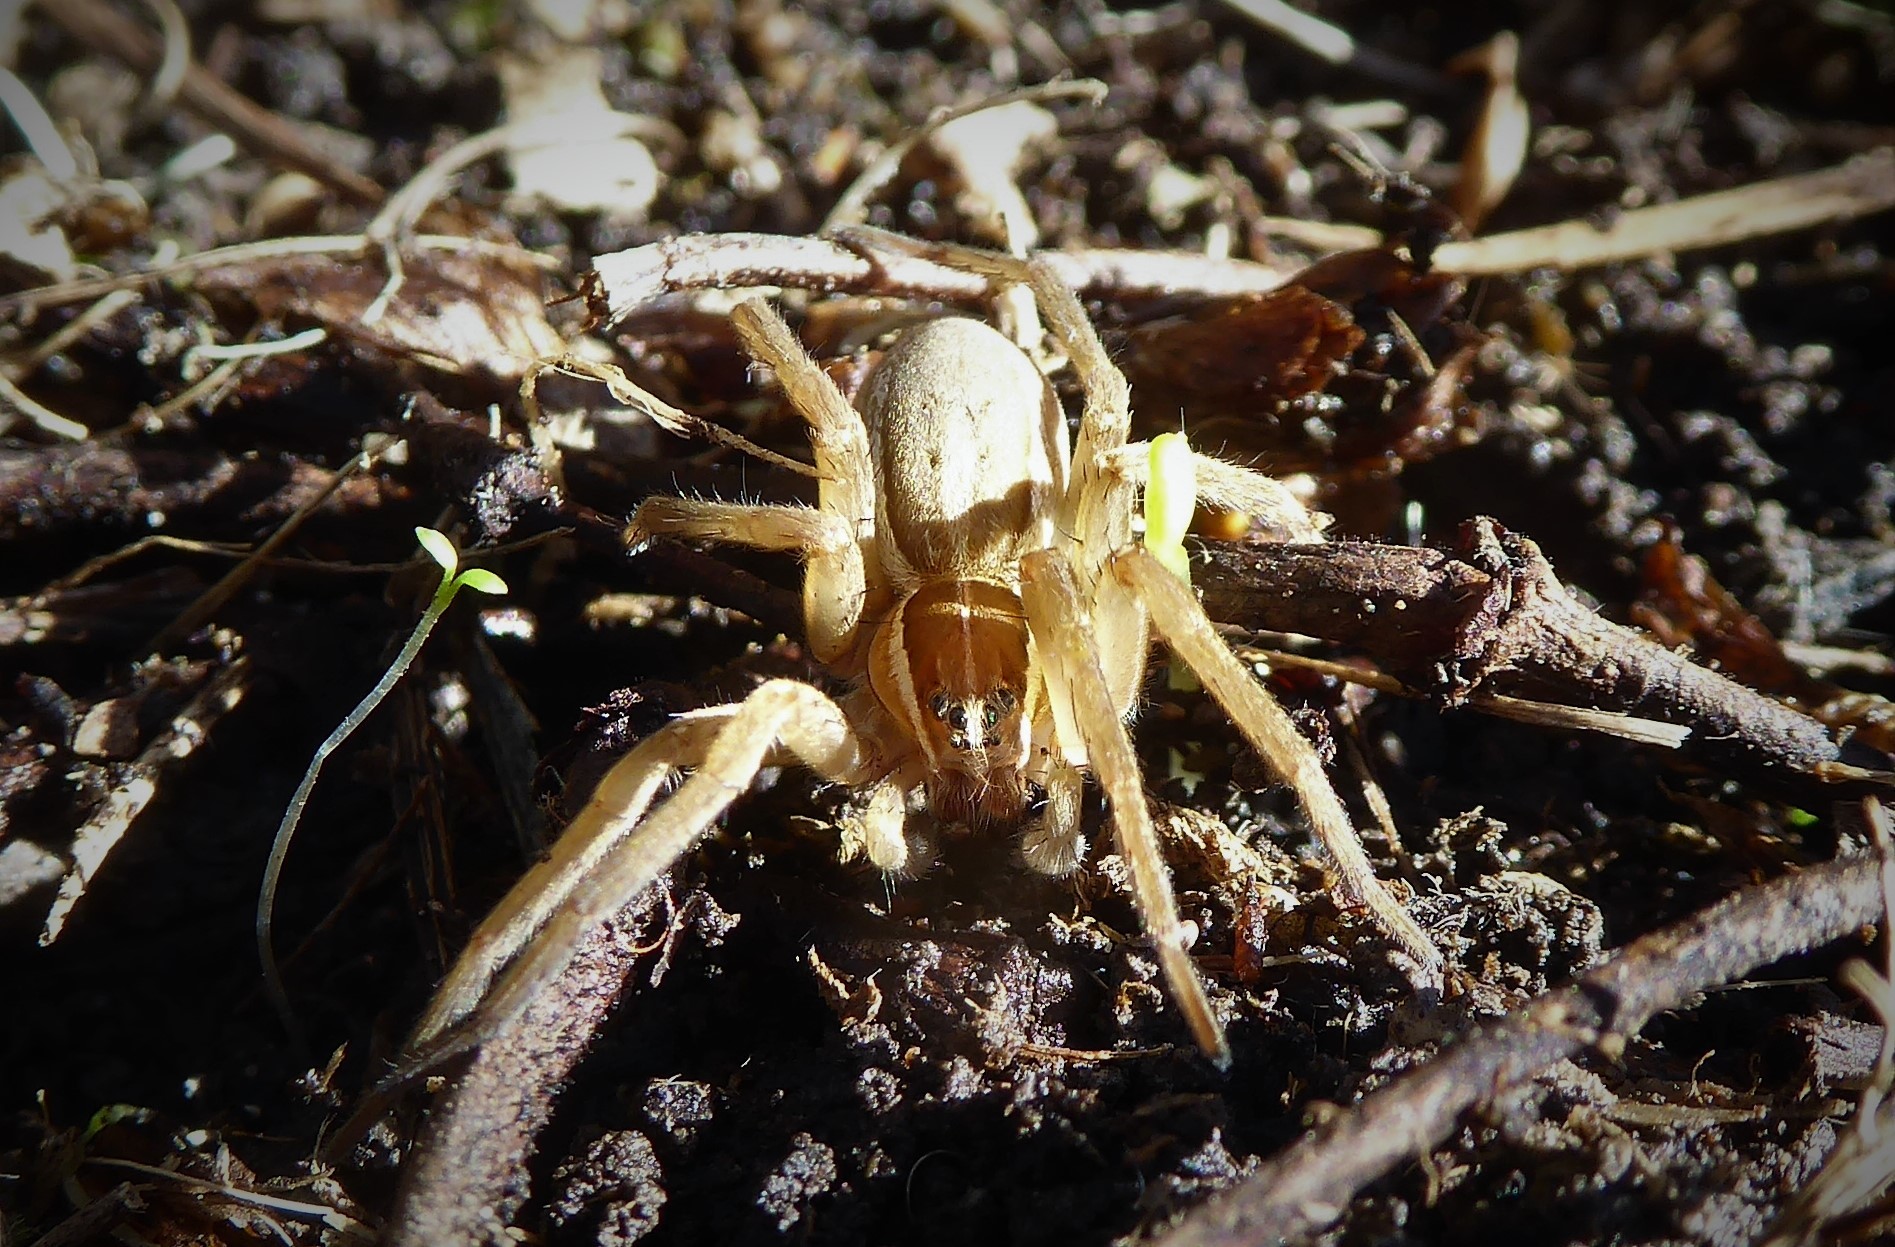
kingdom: Animalia
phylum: Arthropoda
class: Arachnida
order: Araneae
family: Pisauridae
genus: Dolomedes
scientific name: Dolomedes minor
